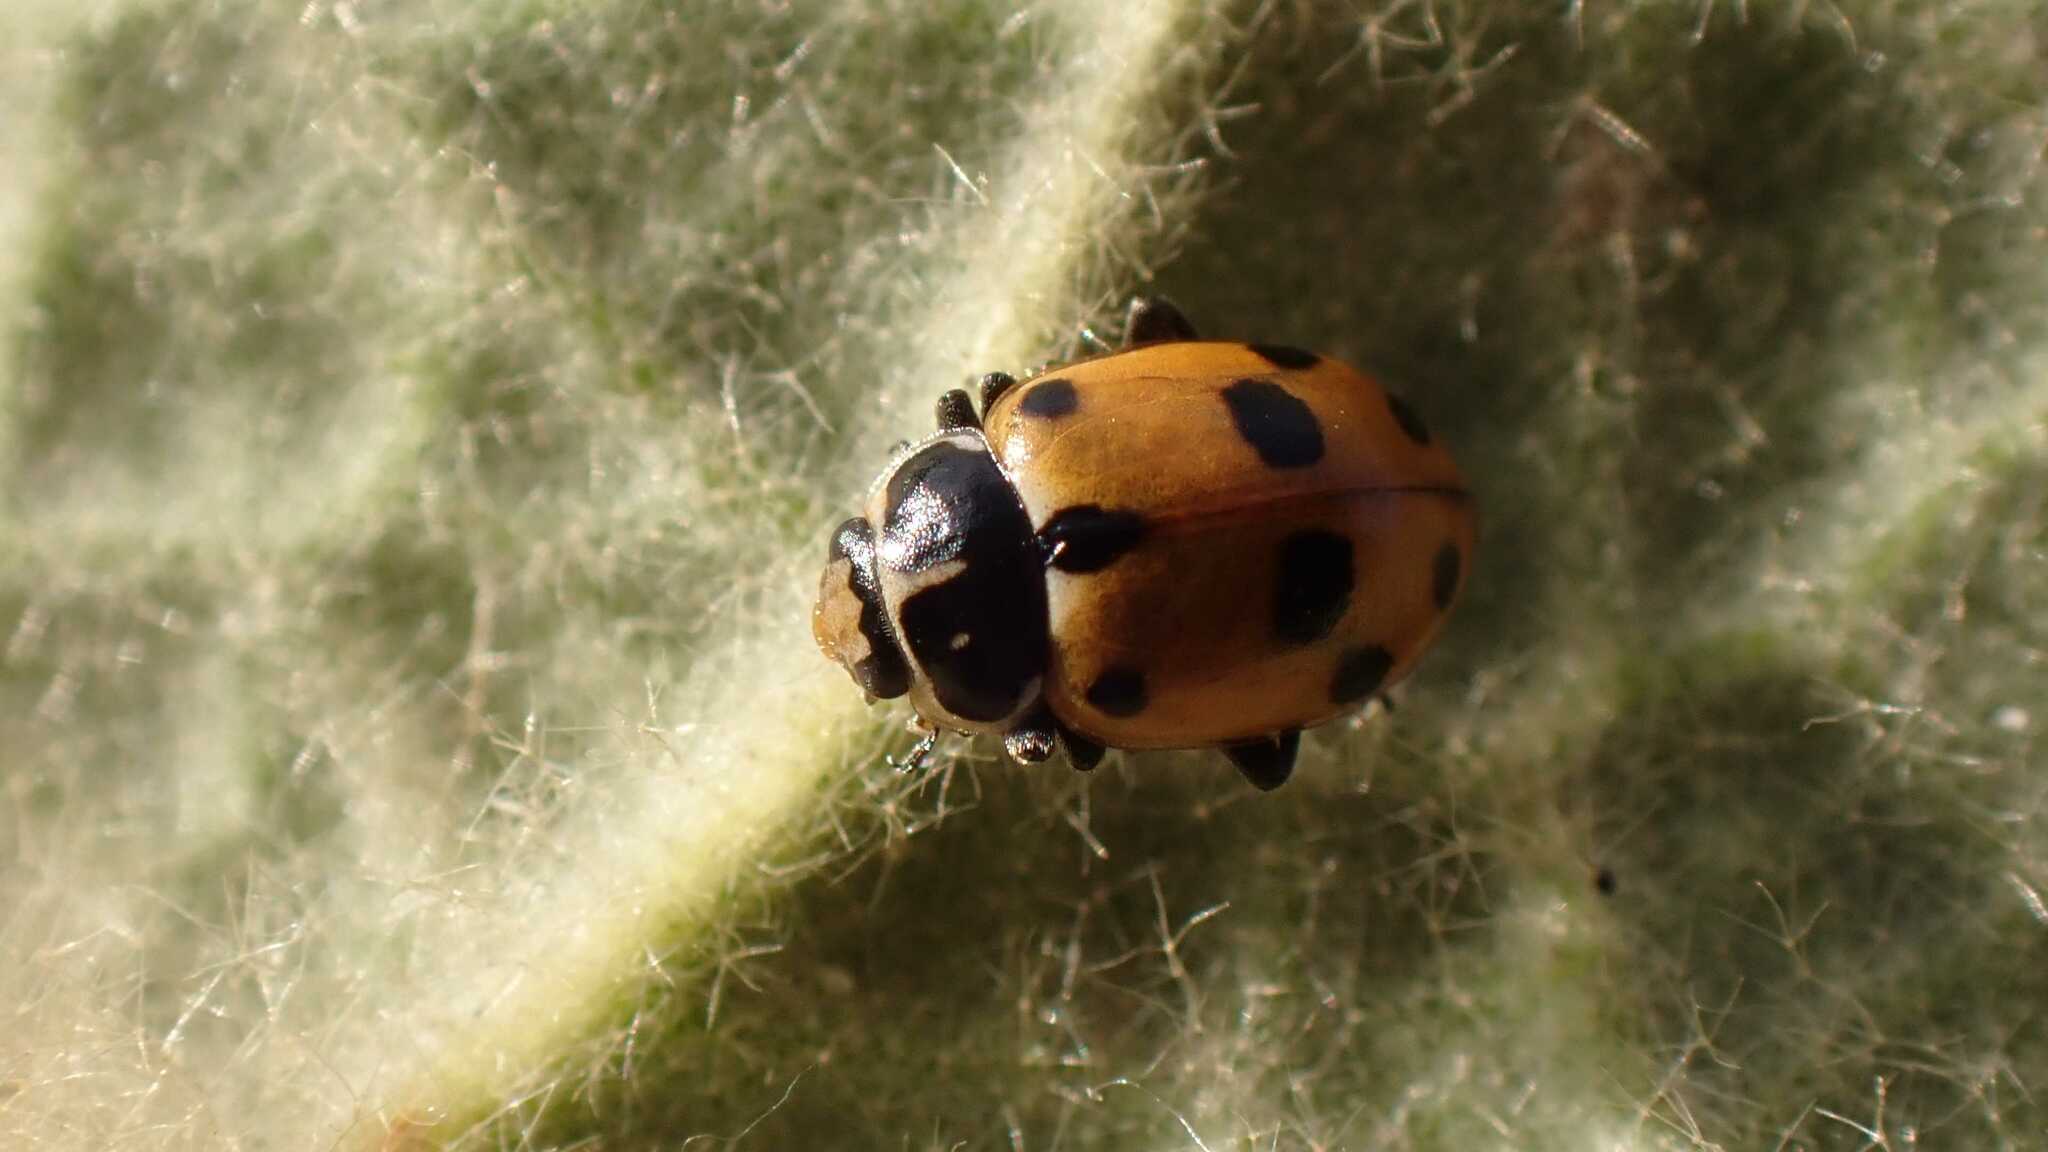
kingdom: Animalia
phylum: Arthropoda
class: Insecta
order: Coleoptera
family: Coccinellidae
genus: Hippodamia
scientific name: Hippodamia variegata
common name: Ladybird beetle
